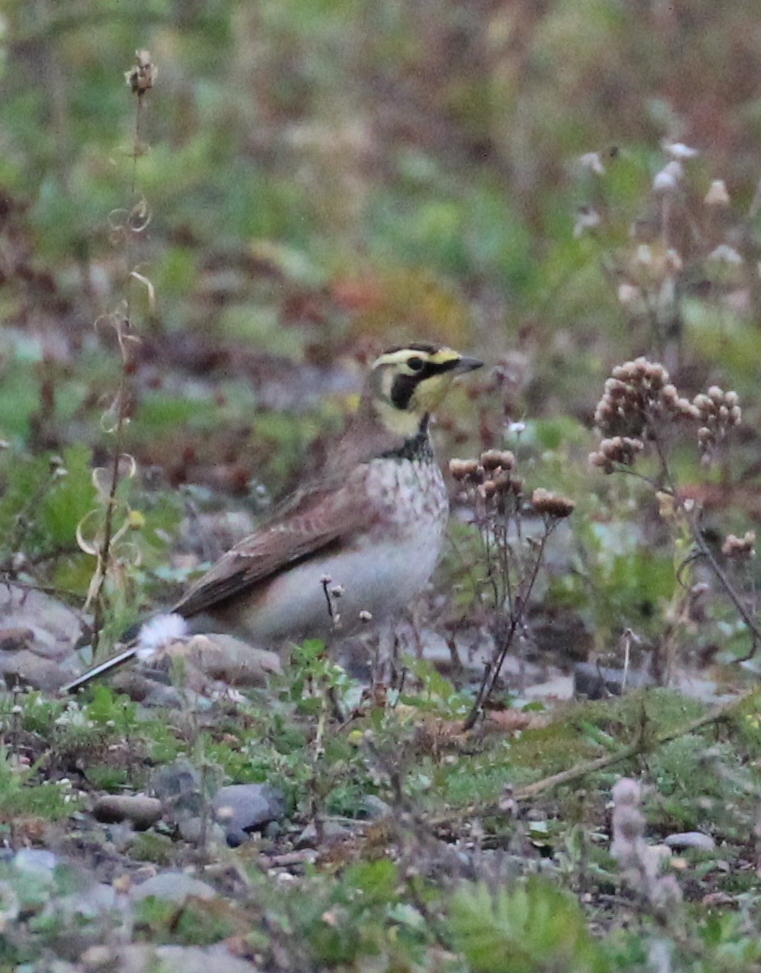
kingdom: Animalia
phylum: Chordata
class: Aves
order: Passeriformes
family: Alaudidae
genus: Eremophila
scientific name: Eremophila alpestris
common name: Horned lark
